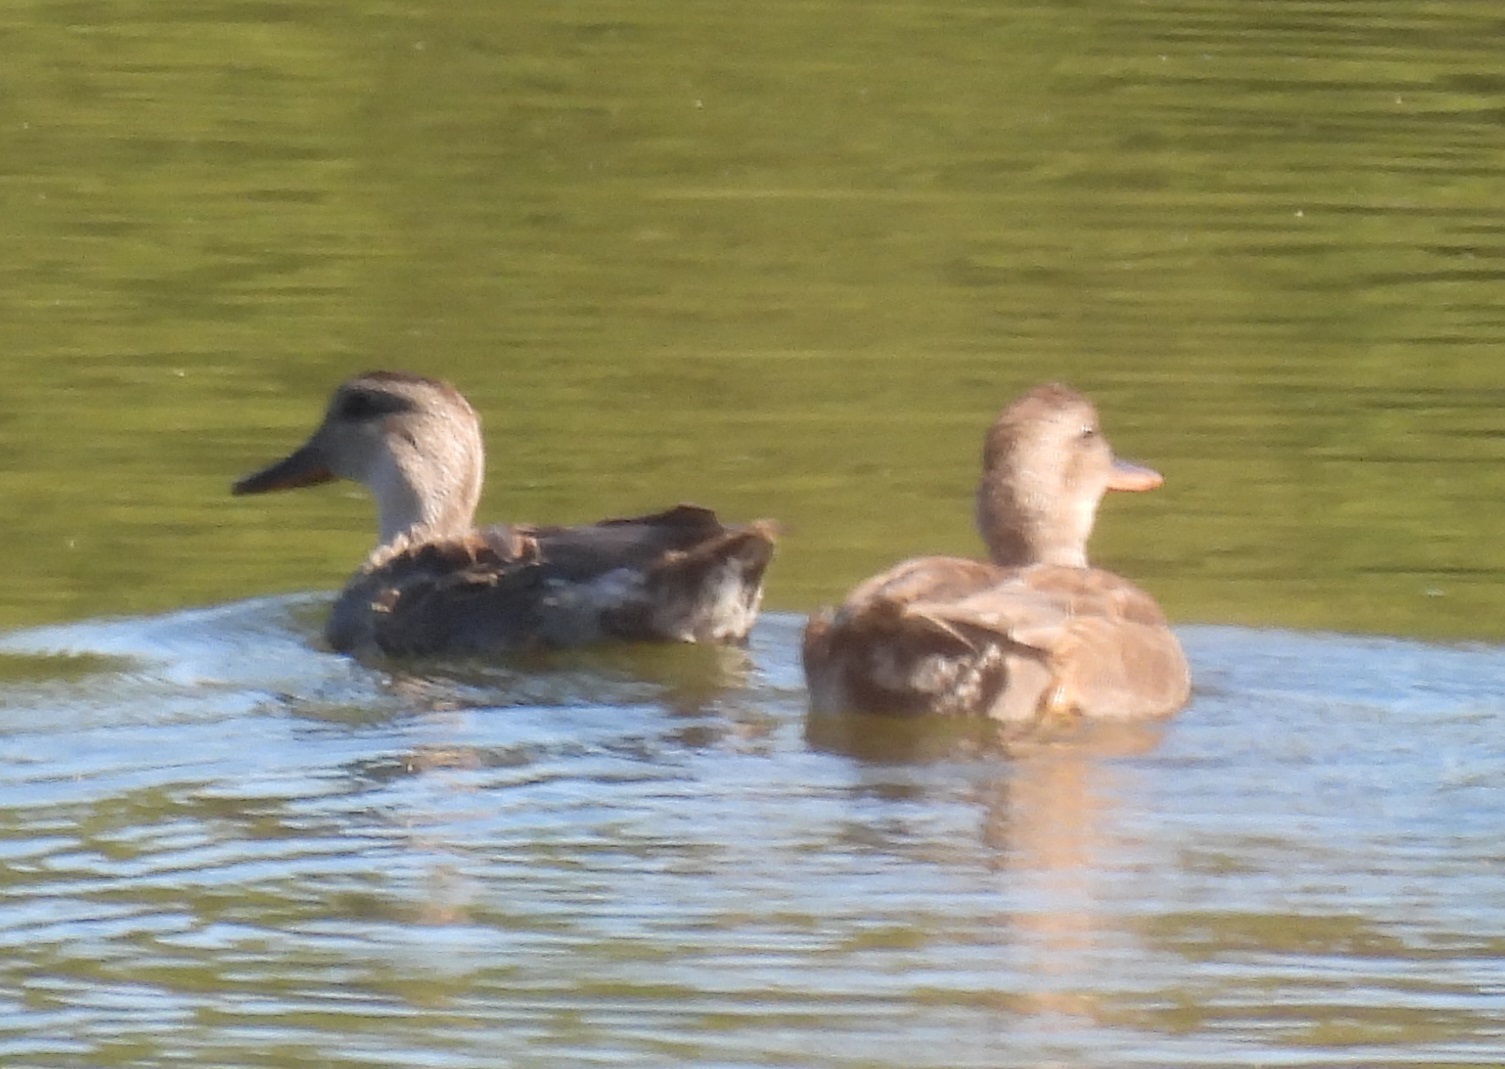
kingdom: Animalia
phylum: Chordata
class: Aves
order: Anseriformes
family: Anatidae
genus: Mareca
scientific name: Mareca strepera
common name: Gadwall
